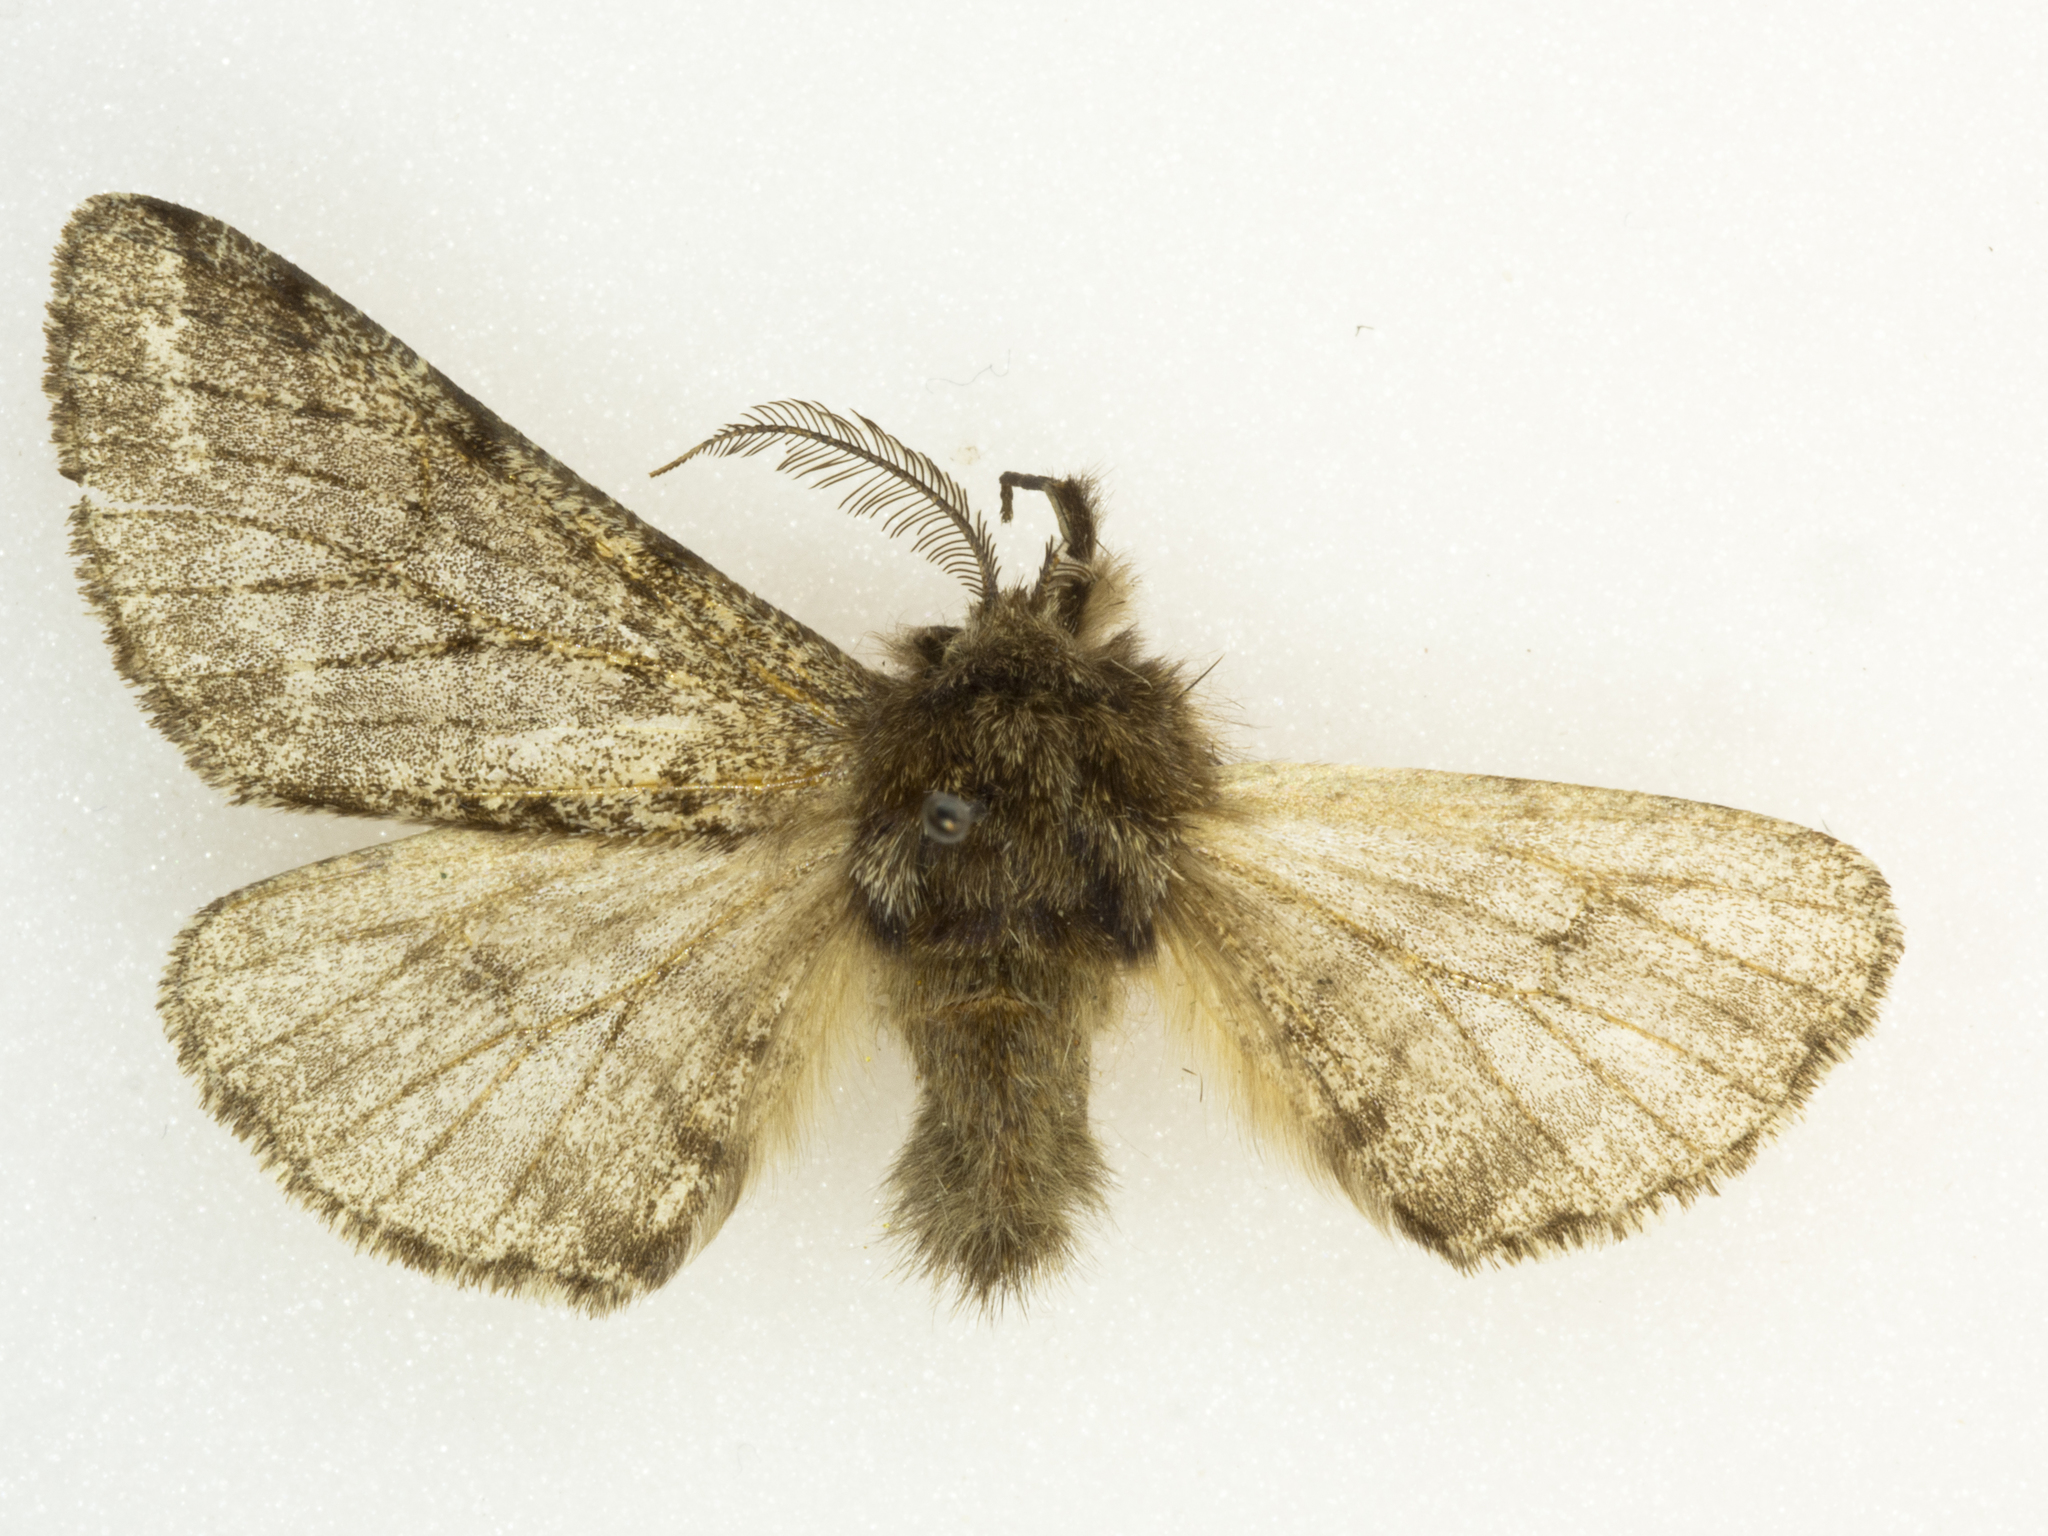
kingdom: Animalia
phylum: Arthropoda
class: Insecta
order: Lepidoptera
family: Geometridae
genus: Lycia
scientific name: Lycia ursaria
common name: Stout spanworm
